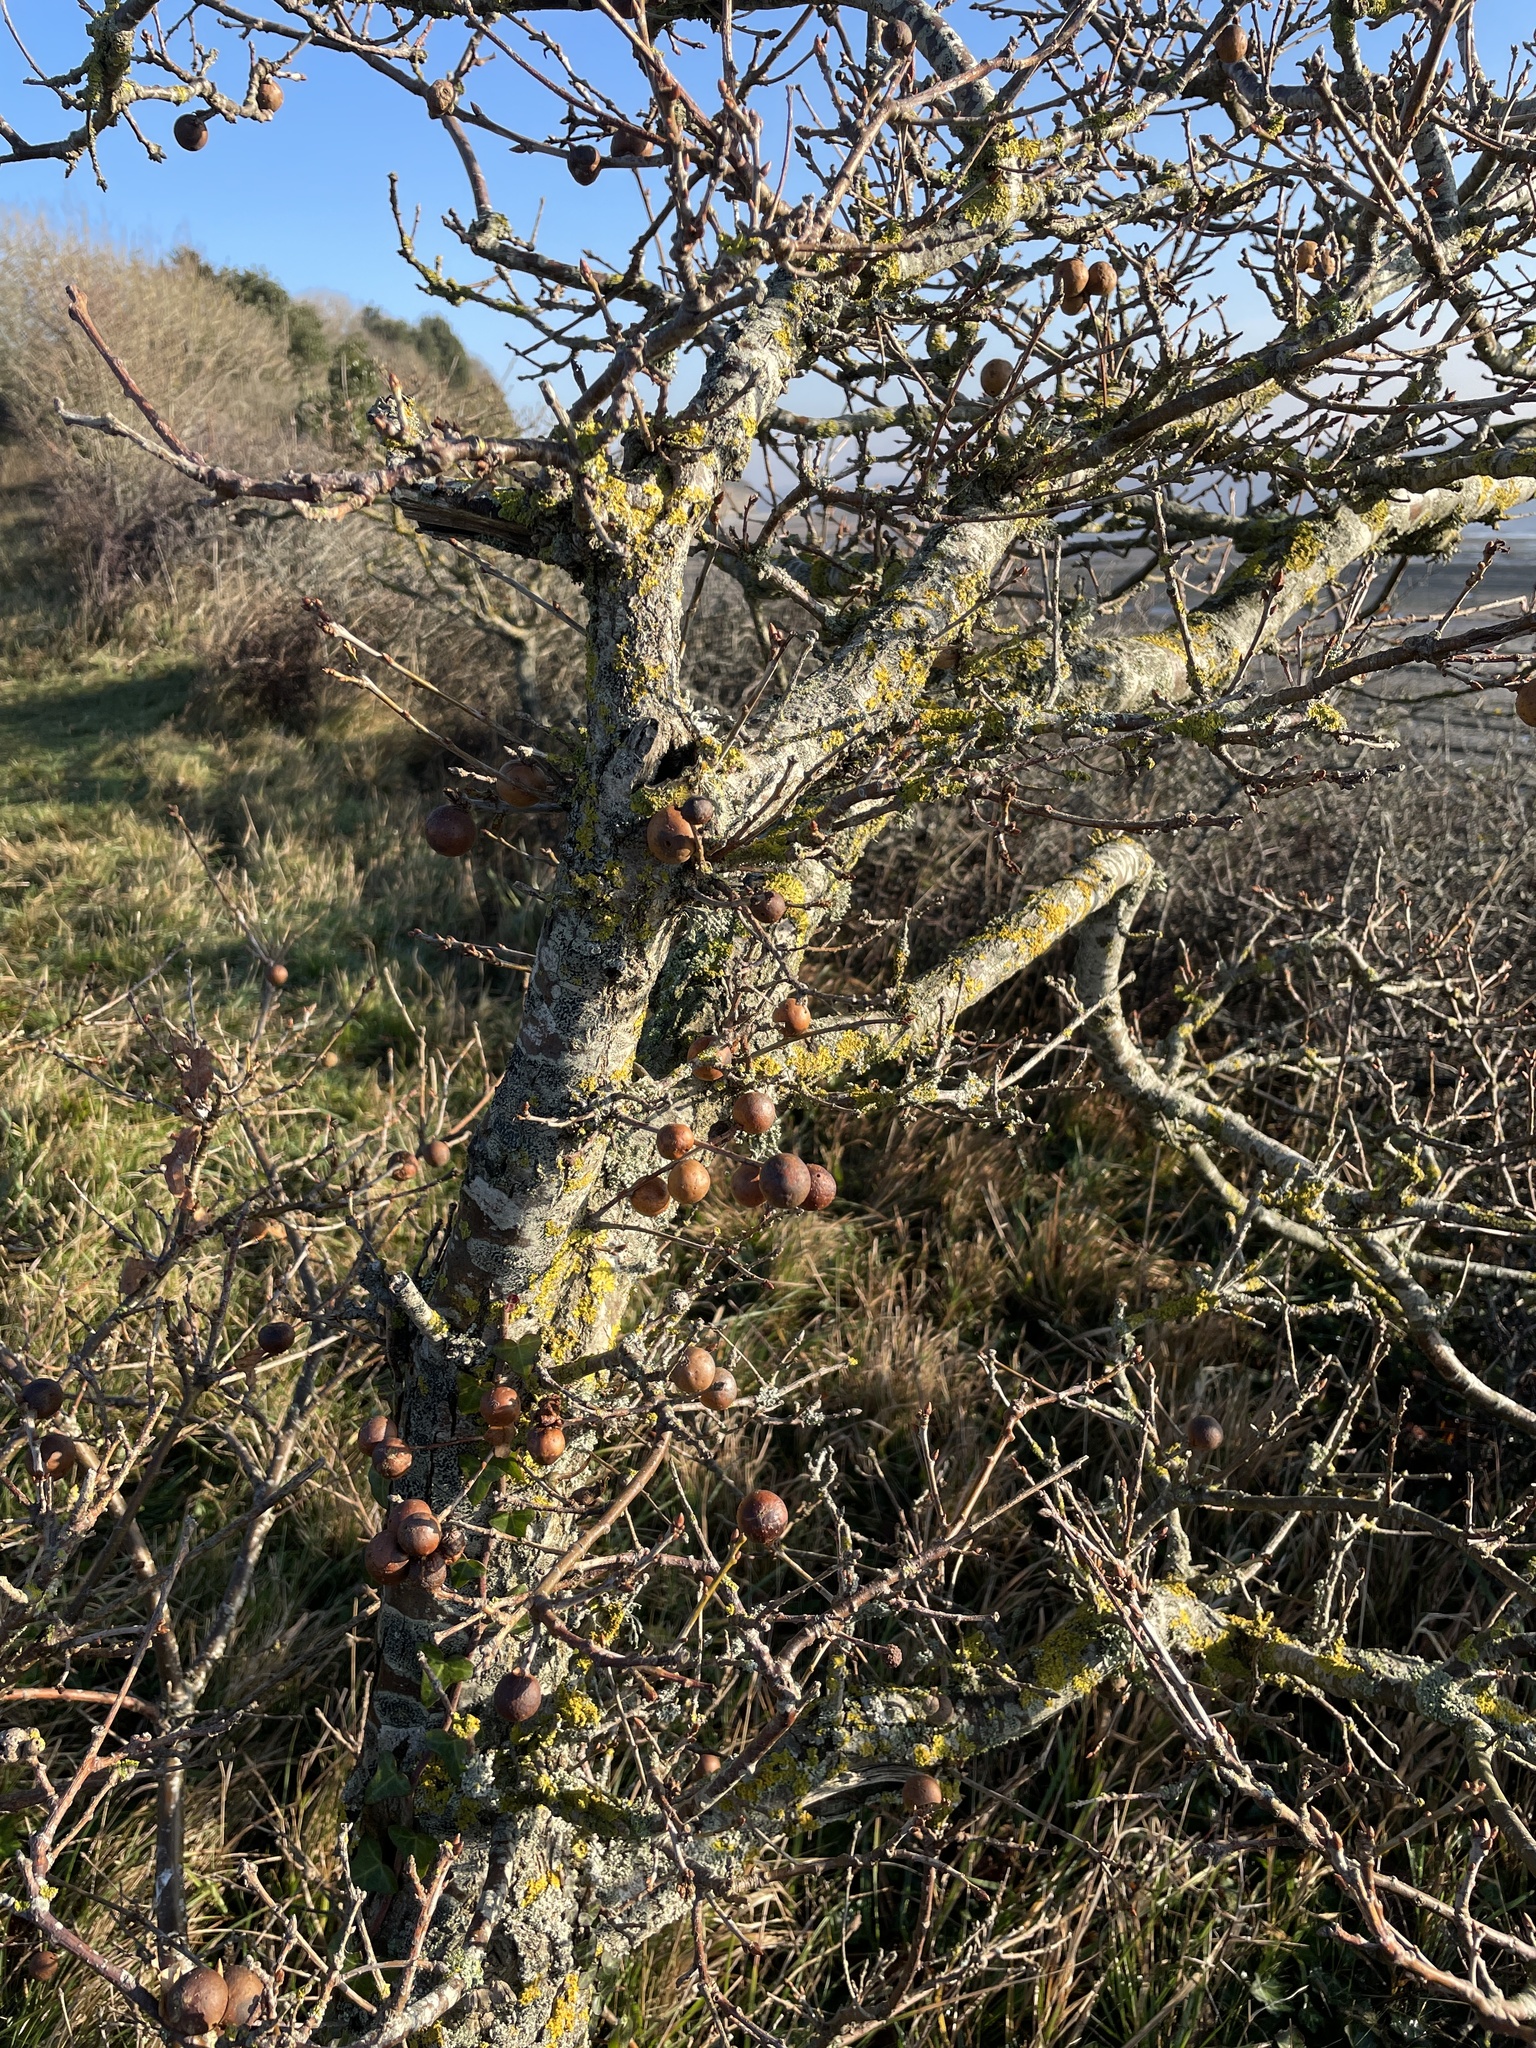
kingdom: Animalia
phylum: Arthropoda
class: Insecta
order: Hymenoptera
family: Cynipidae
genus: Andricus
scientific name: Andricus kollari
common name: Marble gall
